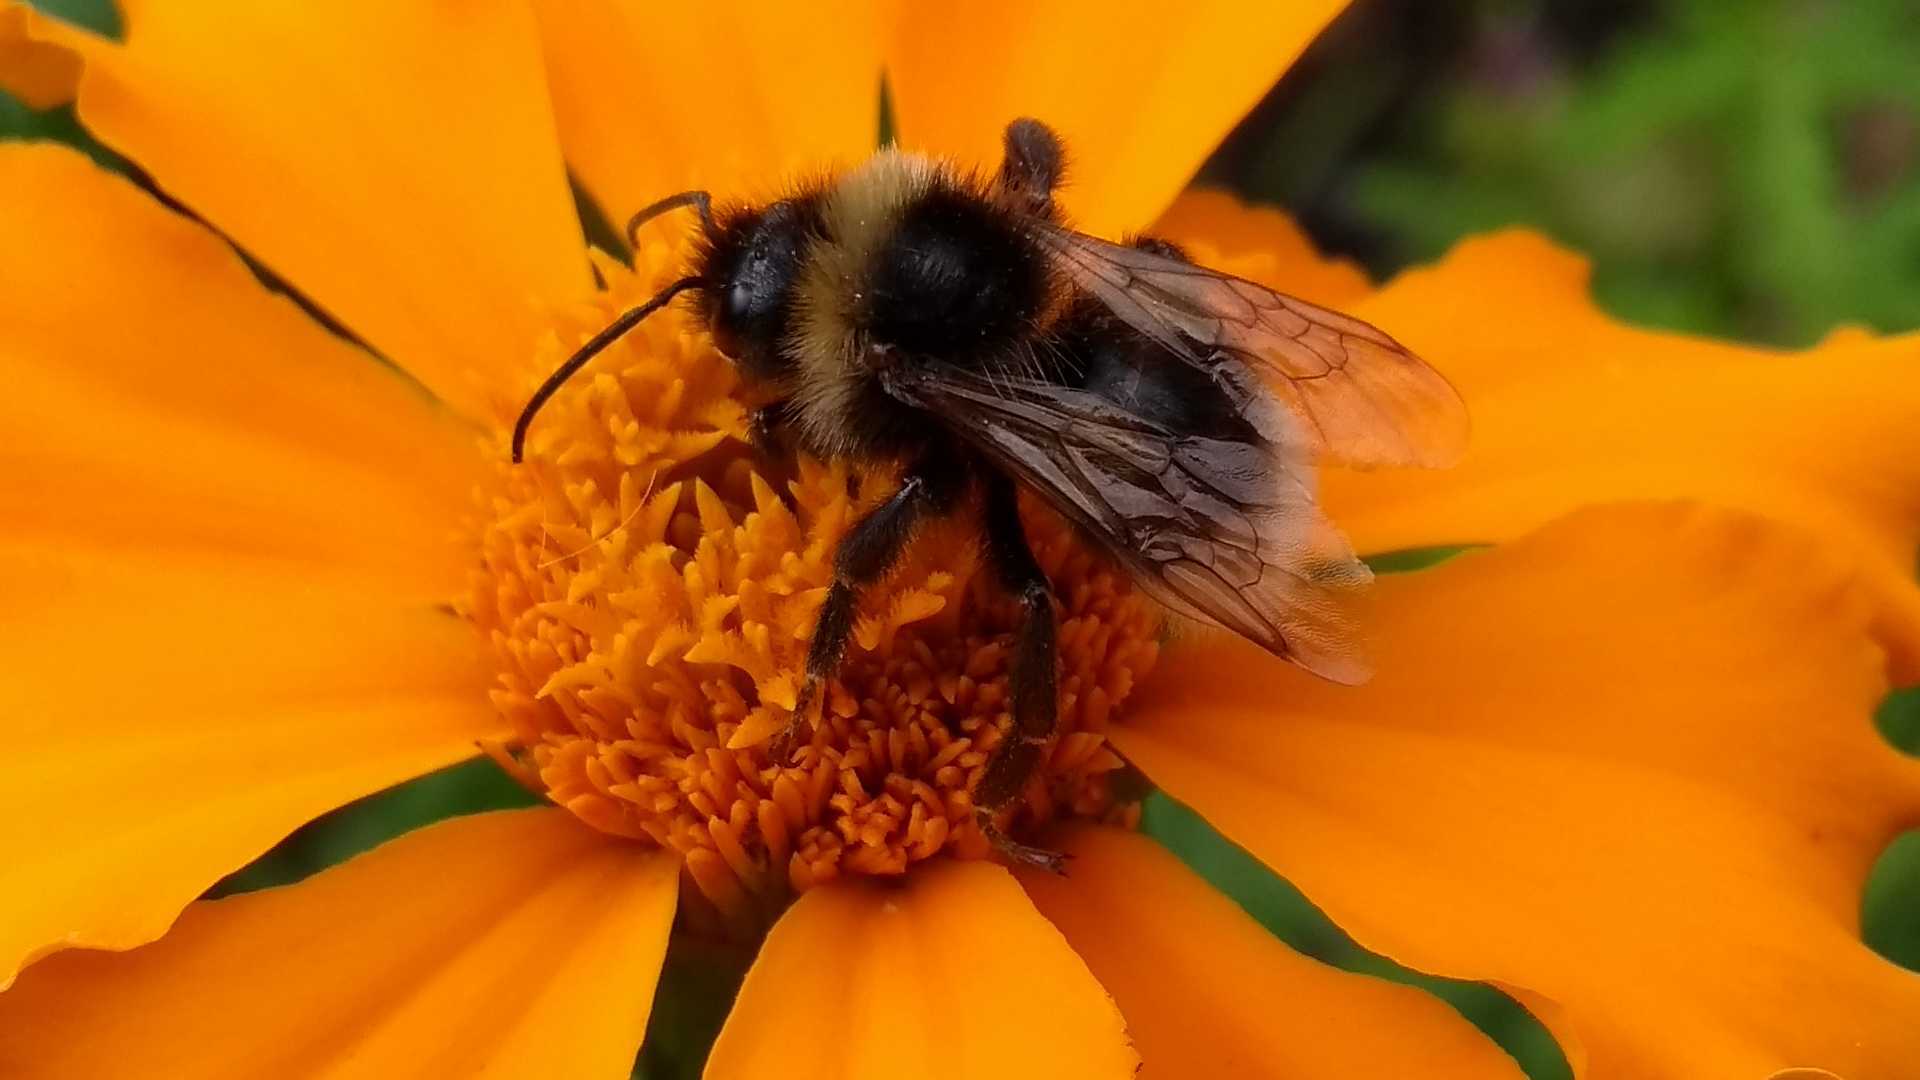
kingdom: Animalia
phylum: Arthropoda
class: Insecta
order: Hymenoptera
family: Apidae
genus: Bombus
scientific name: Bombus
